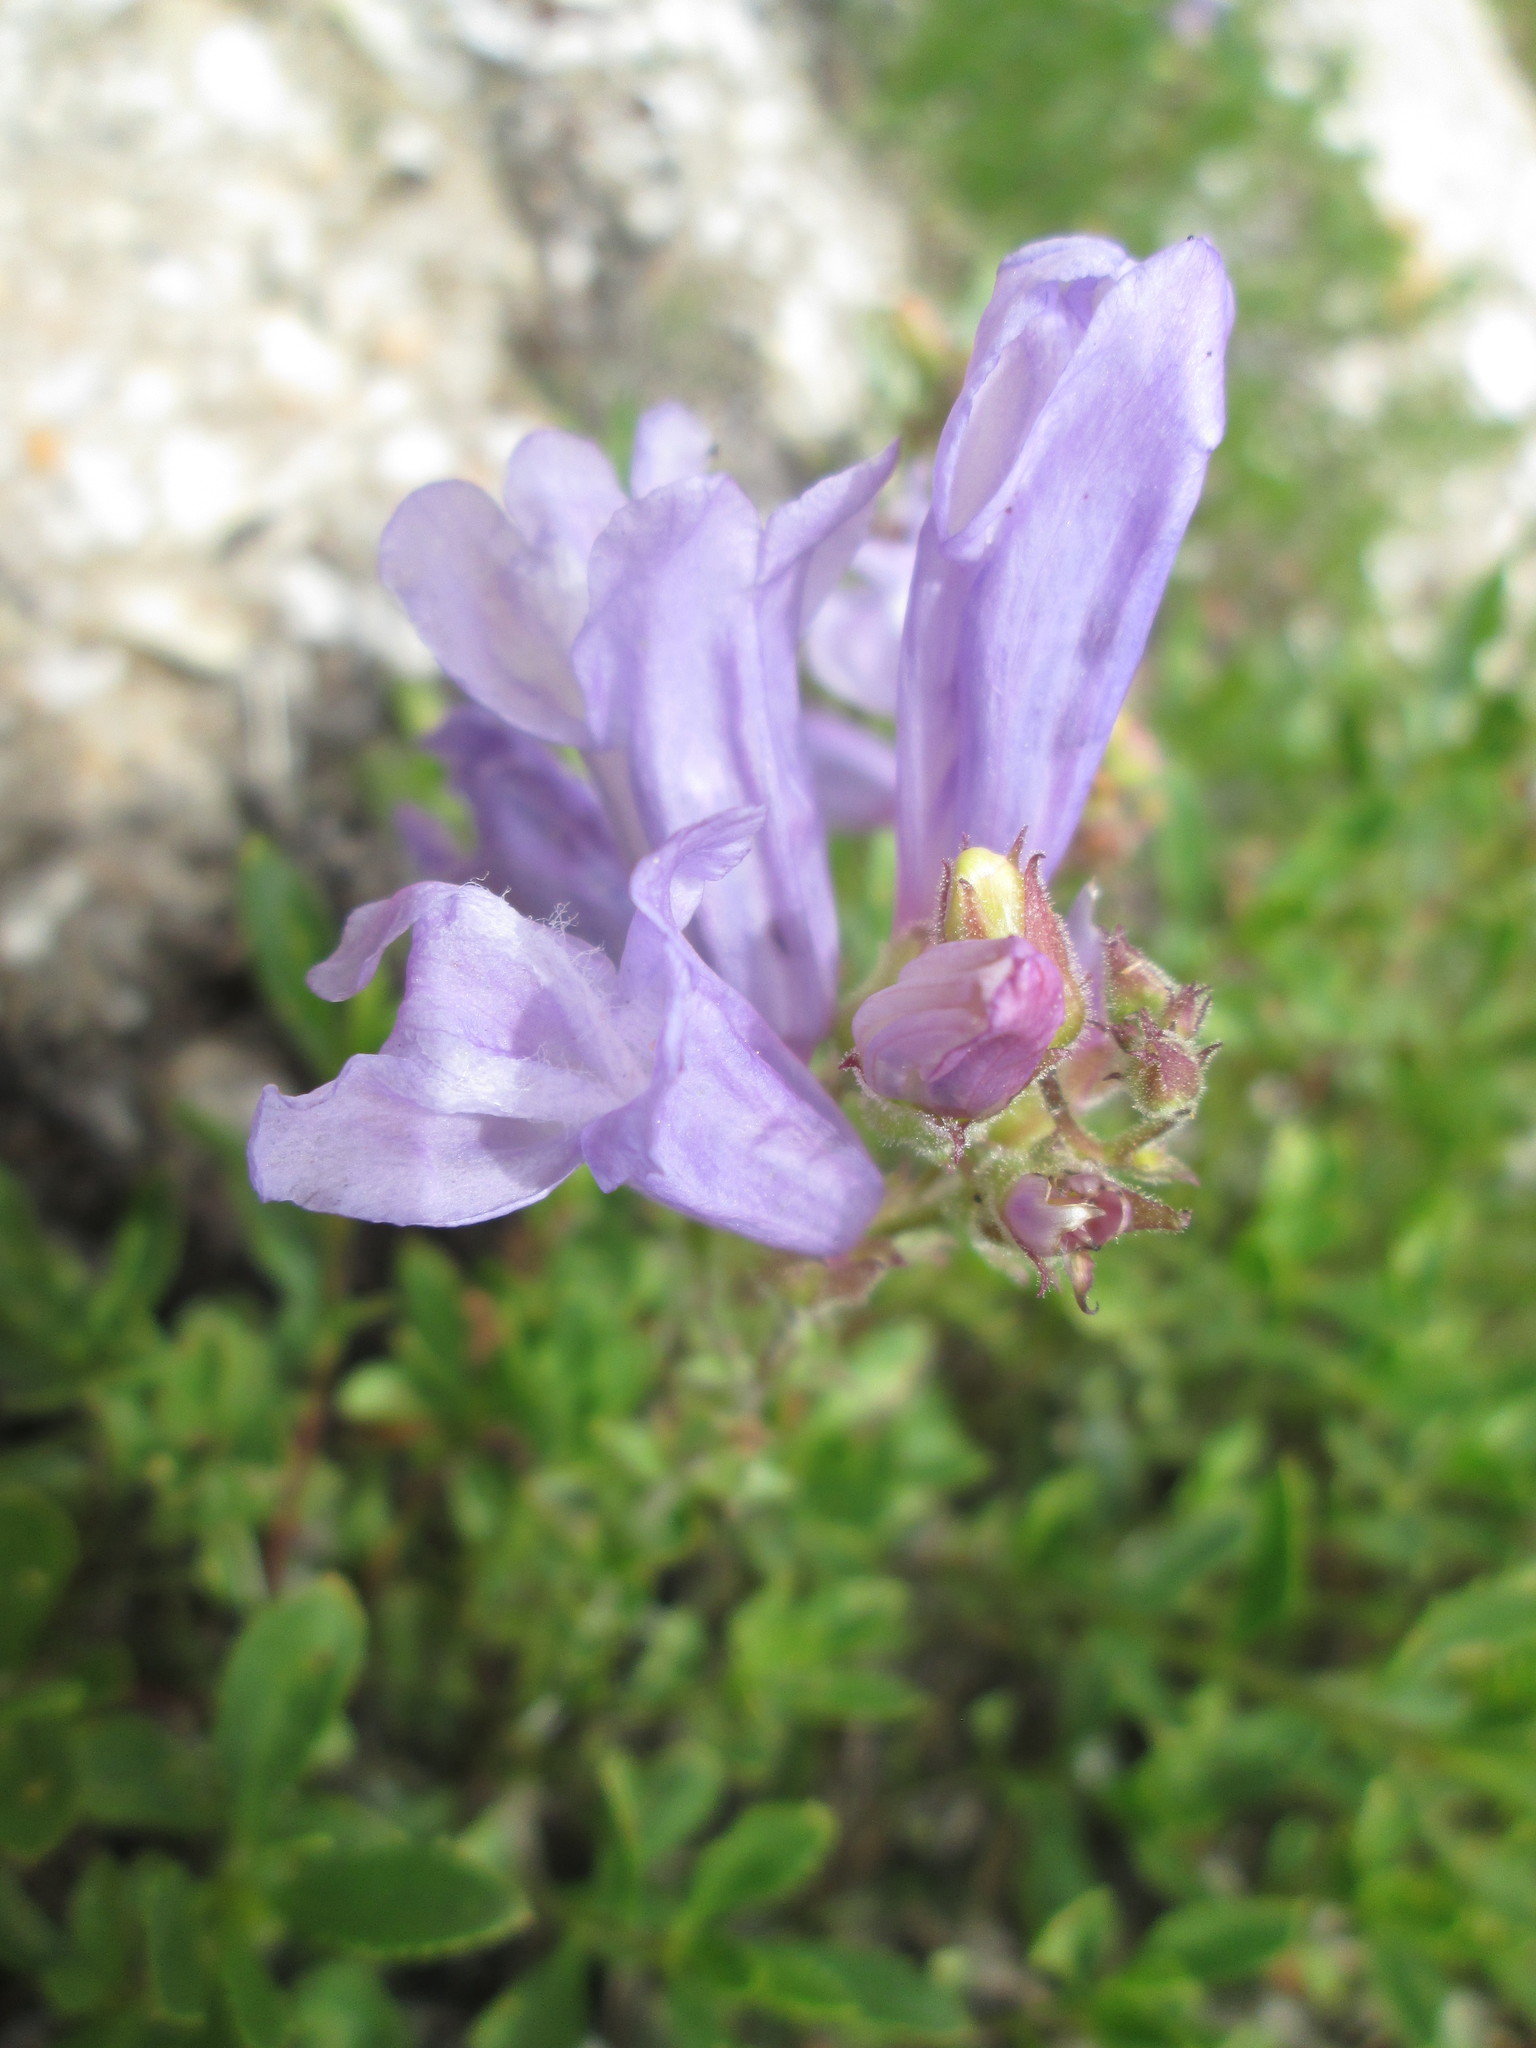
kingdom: Plantae
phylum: Tracheophyta
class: Magnoliopsida
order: Lamiales
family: Plantaginaceae
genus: Penstemon
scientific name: Penstemon fruticosus
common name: Bush penstemon
